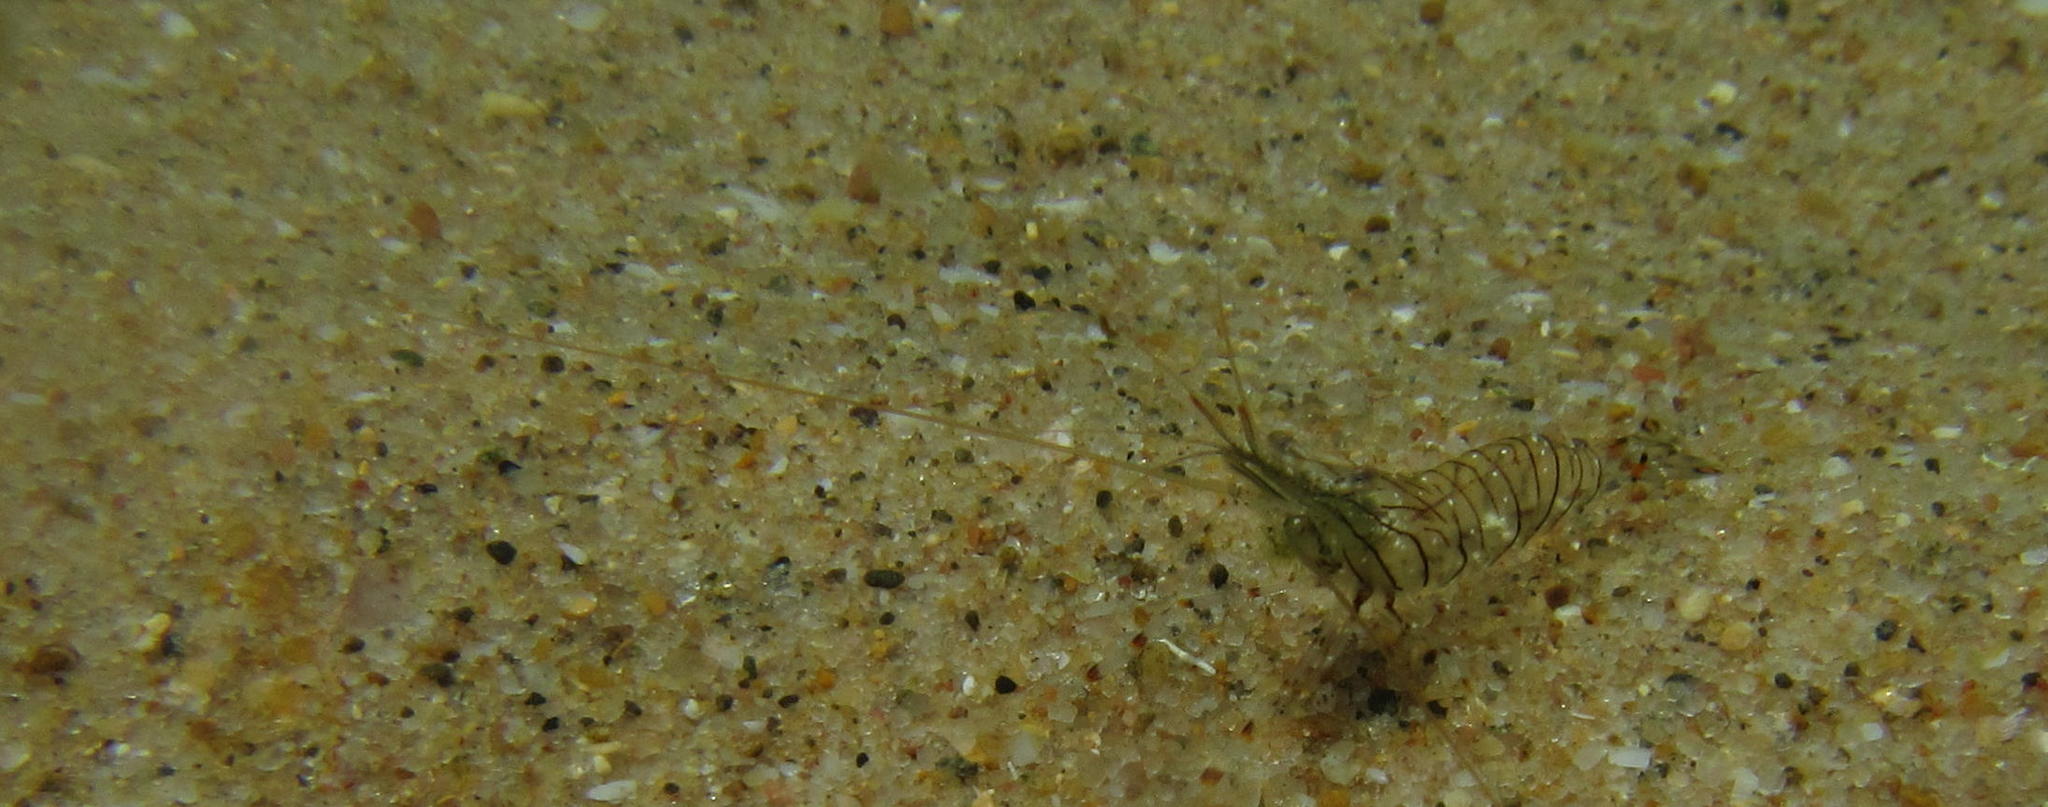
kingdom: Animalia
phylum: Arthropoda
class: Malacostraca
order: Decapoda
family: Palaemonidae
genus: Palaemon
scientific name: Palaemon peringueyi
